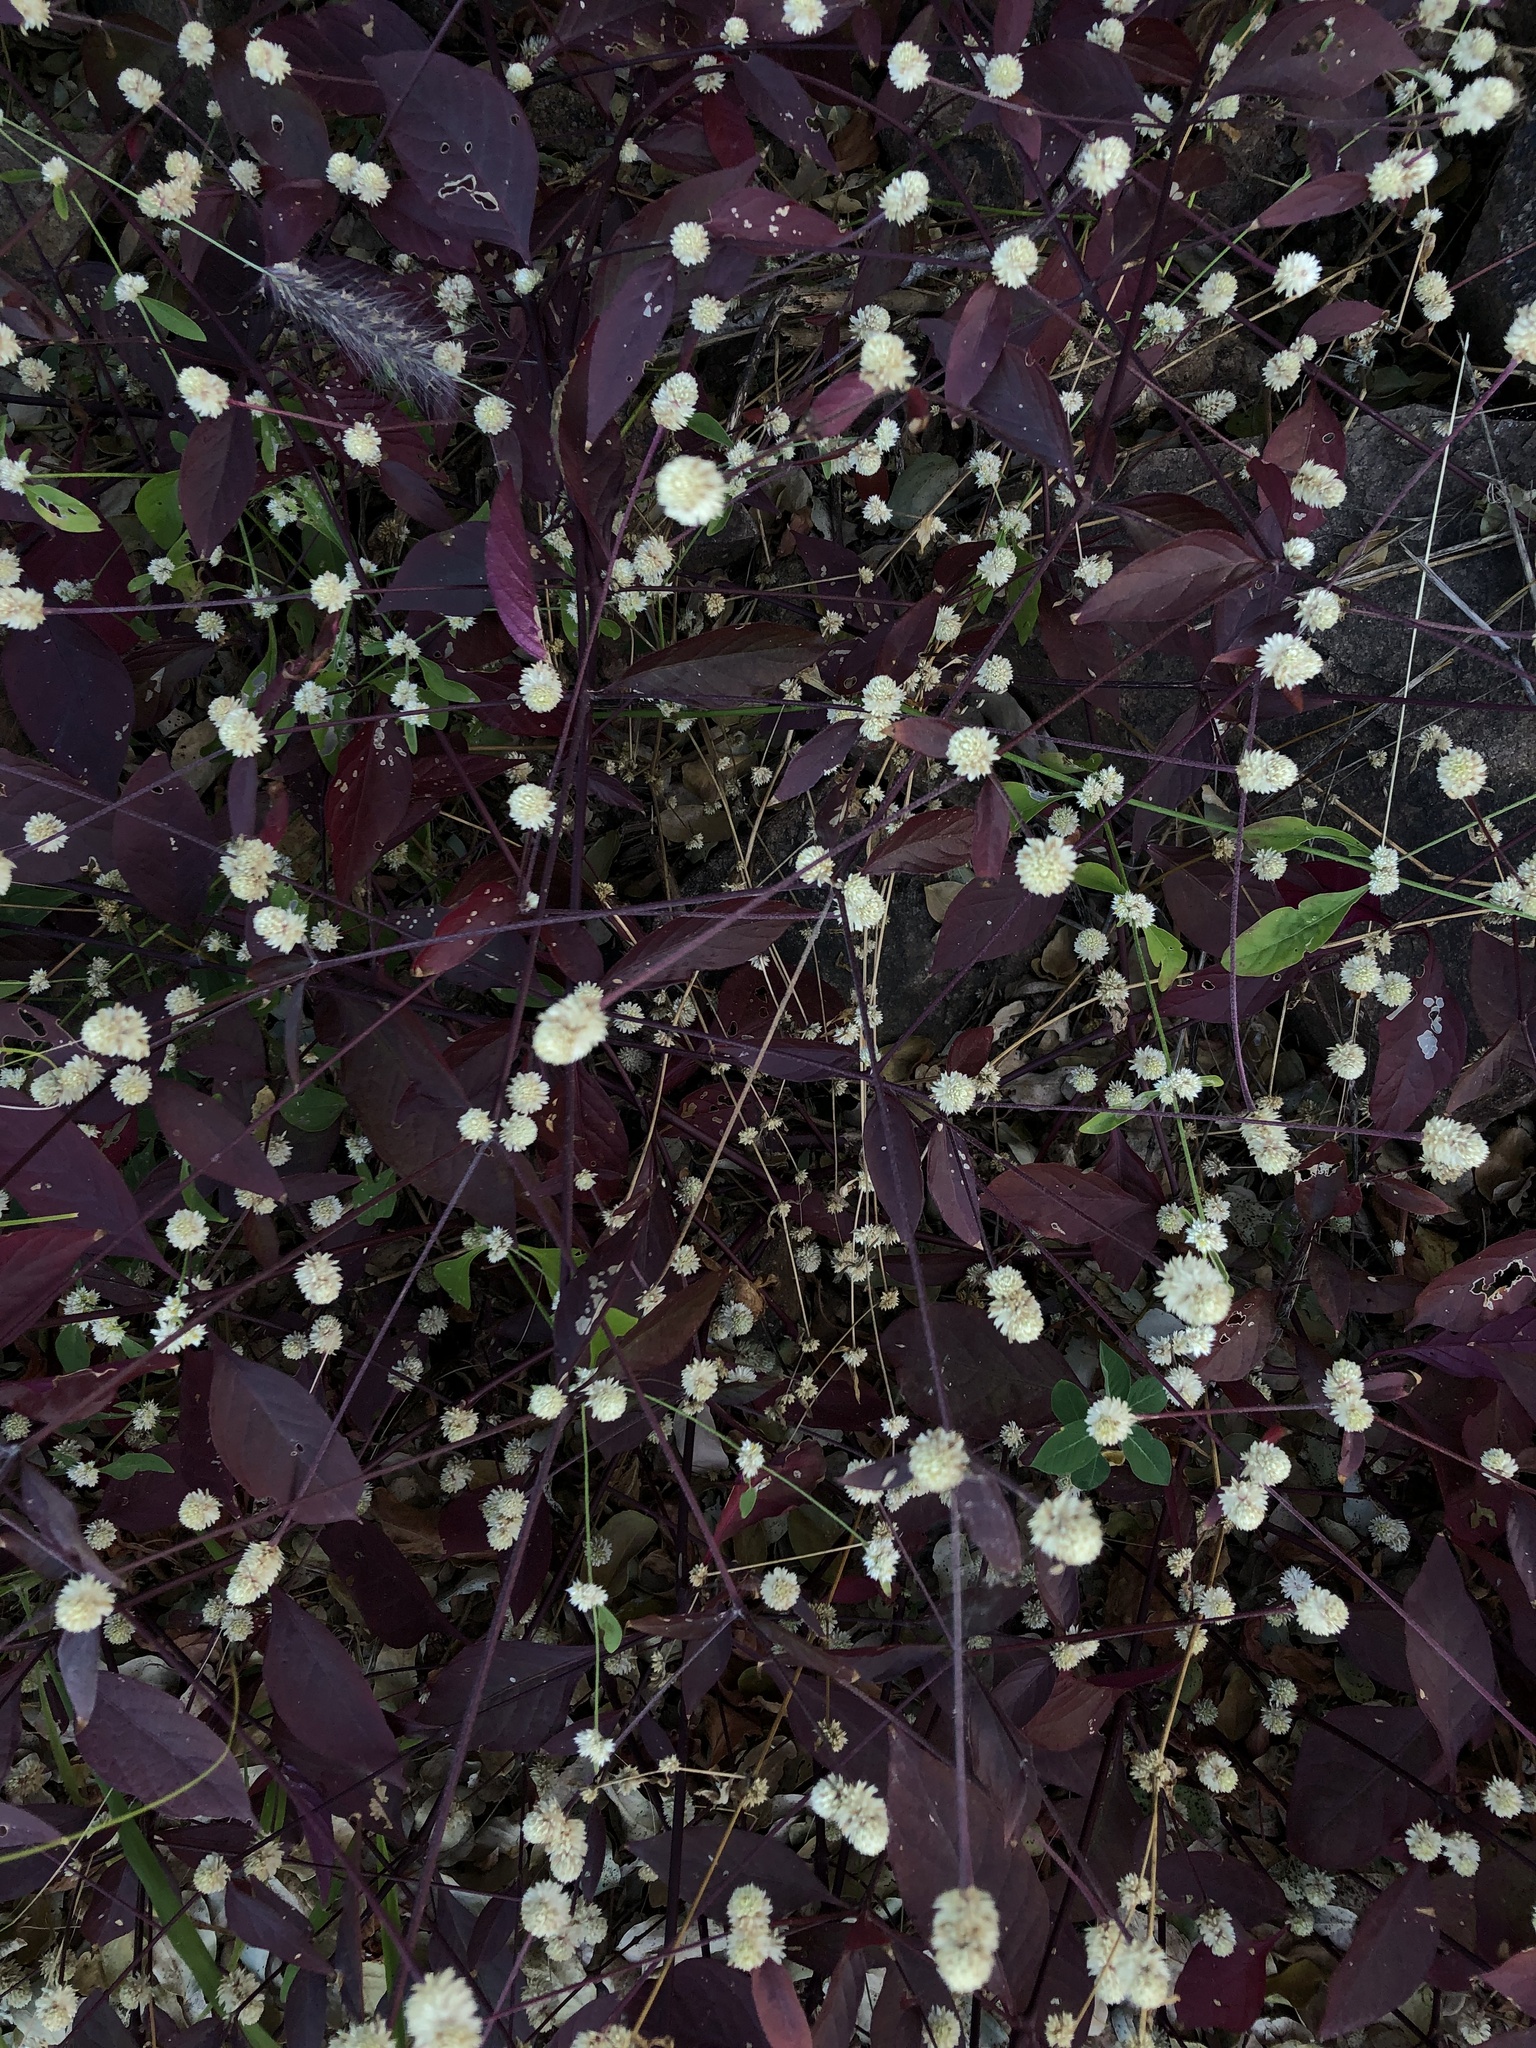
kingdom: Plantae
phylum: Tracheophyta
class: Magnoliopsida
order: Caryophyllales
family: Amaranthaceae
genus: Alternanthera
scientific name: Alternanthera brasiliana
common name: Brazilian joyweed
